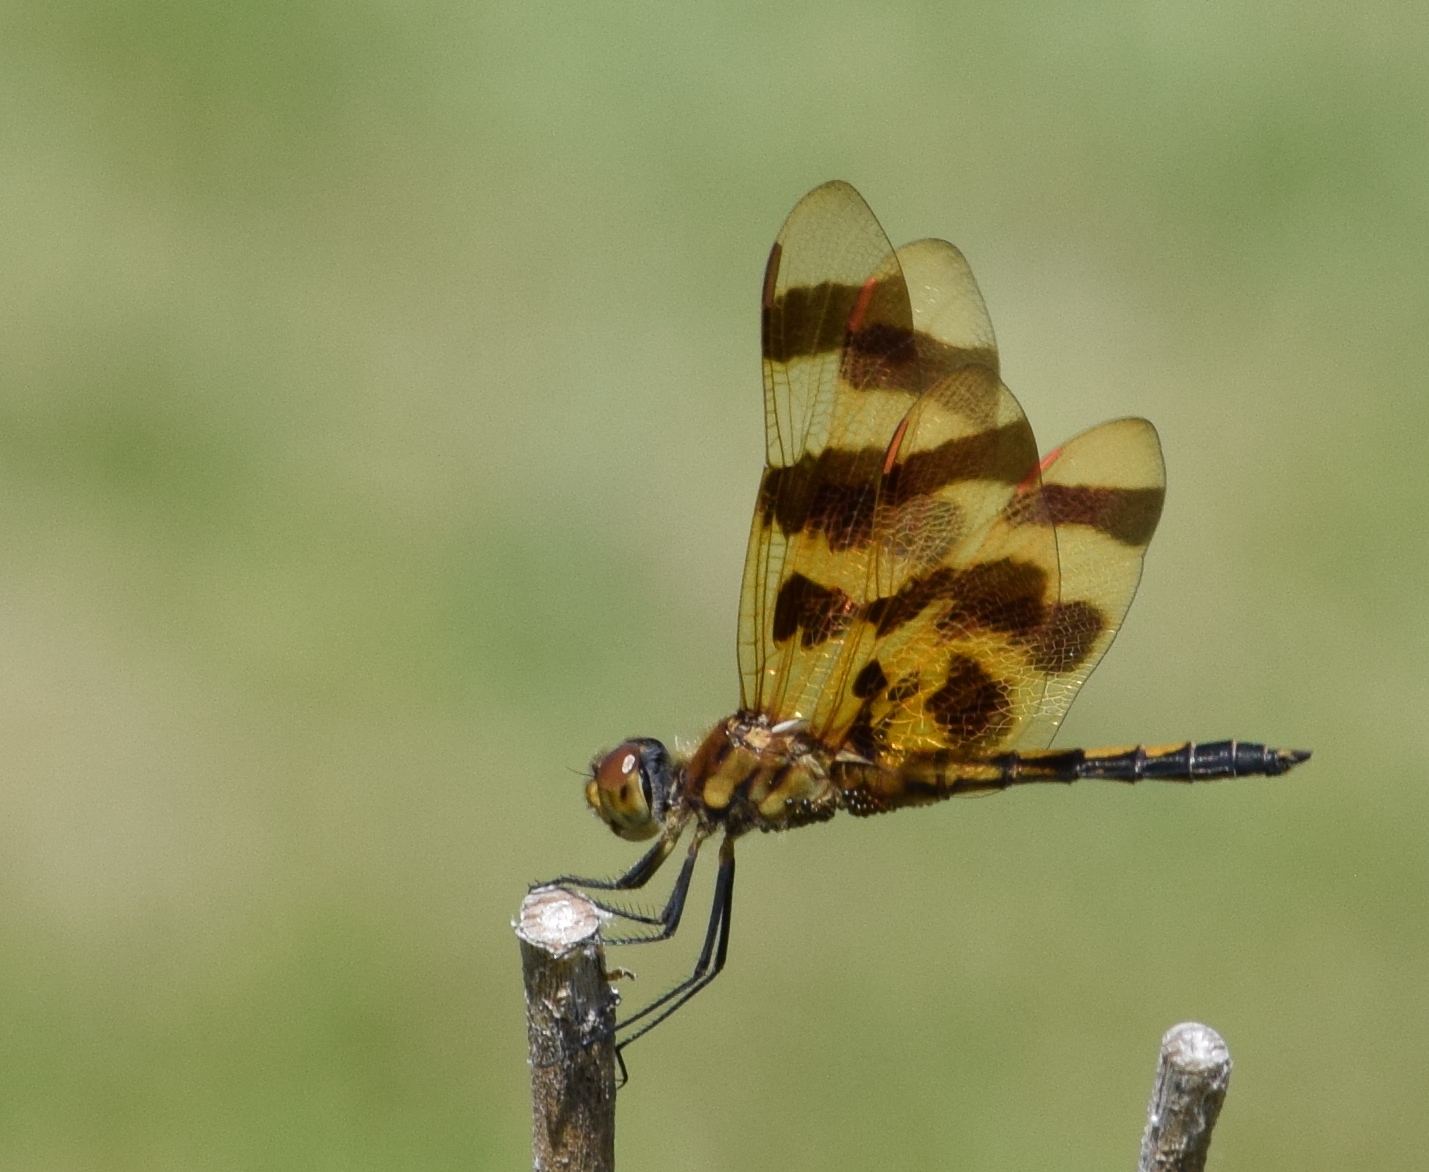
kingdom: Animalia
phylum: Arthropoda
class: Insecta
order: Odonata
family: Libellulidae
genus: Celithemis
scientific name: Celithemis eponina
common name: Halloween pennant
